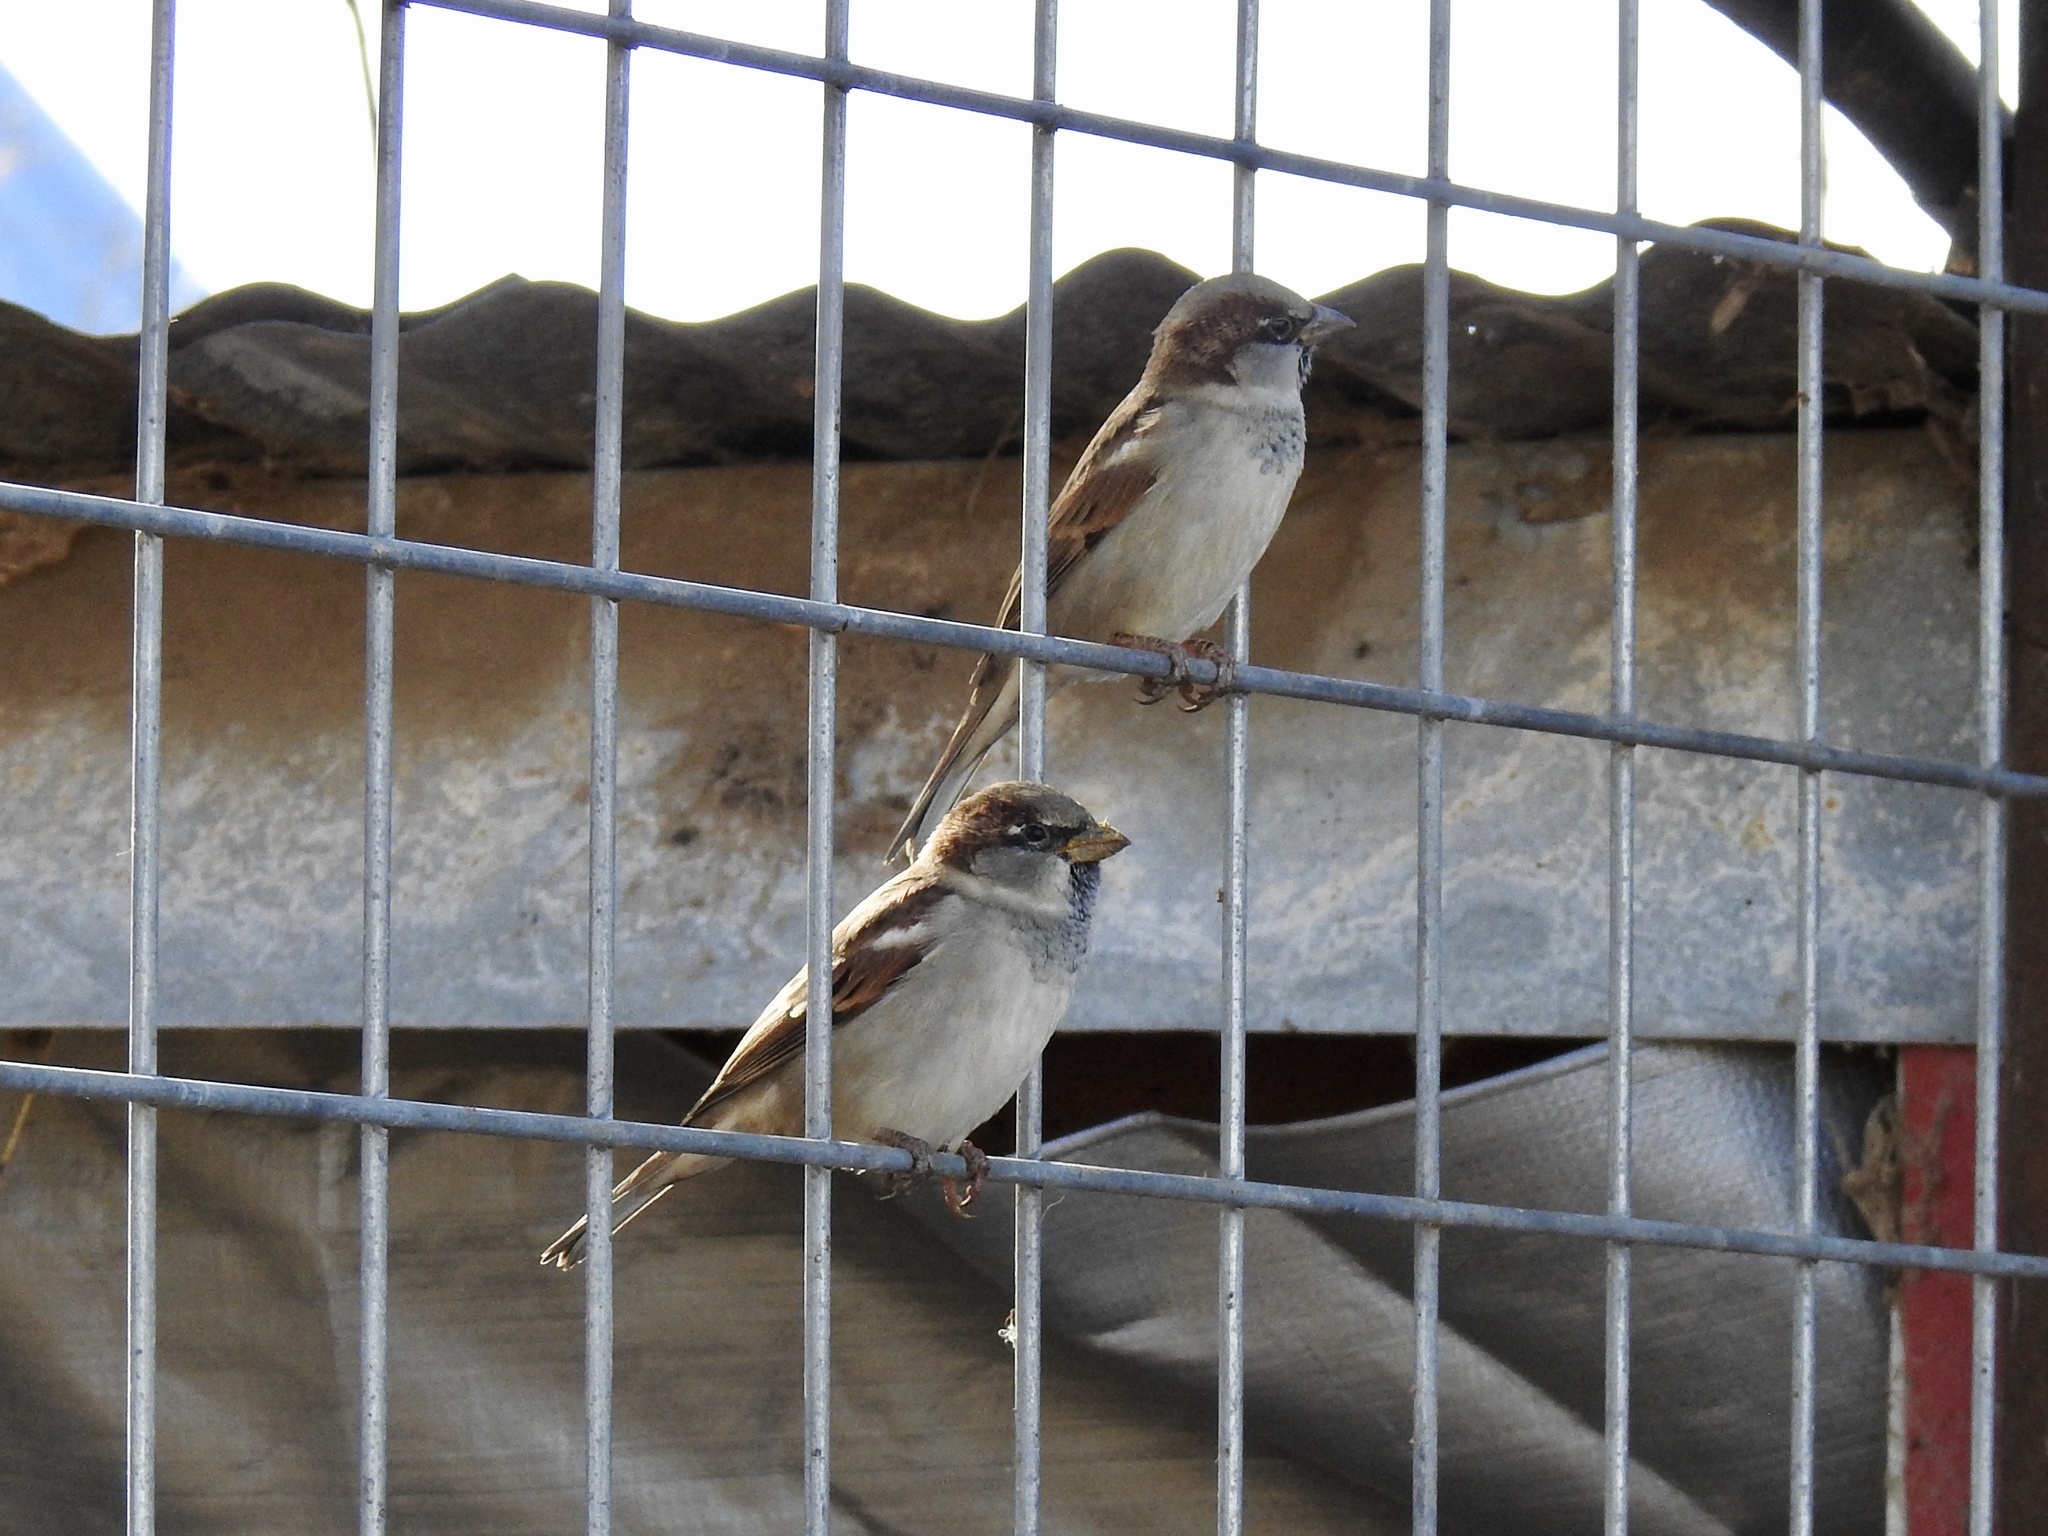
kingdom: Animalia
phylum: Chordata
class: Aves
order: Passeriformes
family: Passeridae
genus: Passer
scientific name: Passer domesticus
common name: House sparrow
